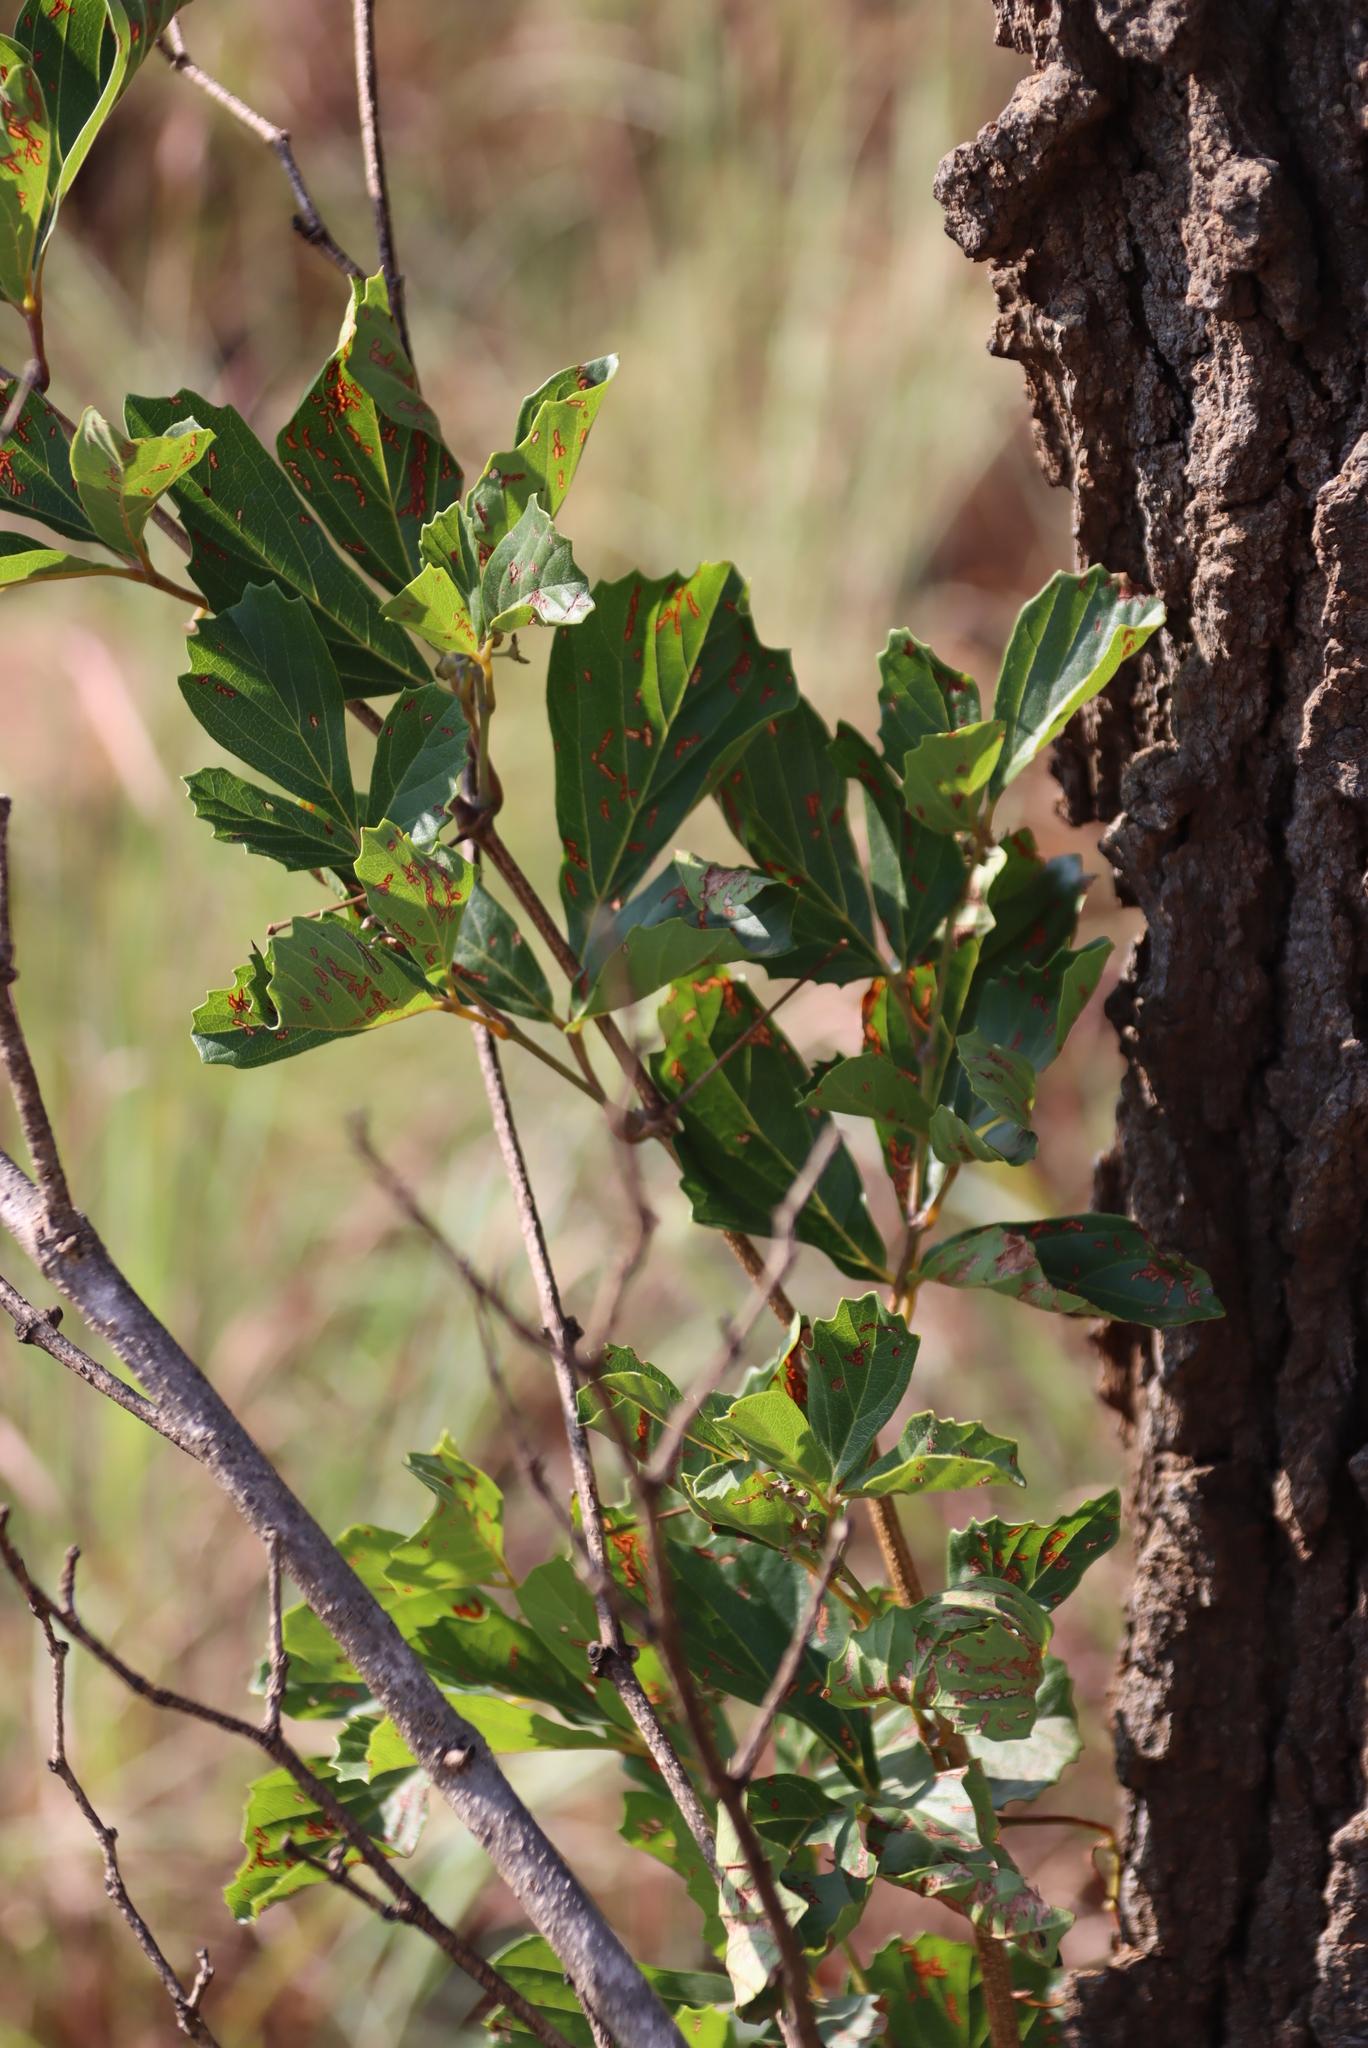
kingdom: Plantae
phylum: Tracheophyta
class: Magnoliopsida
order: Vitales
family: Vitaceae
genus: Rhoicissus
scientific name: Rhoicissus tridentata
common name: Common forest grape
